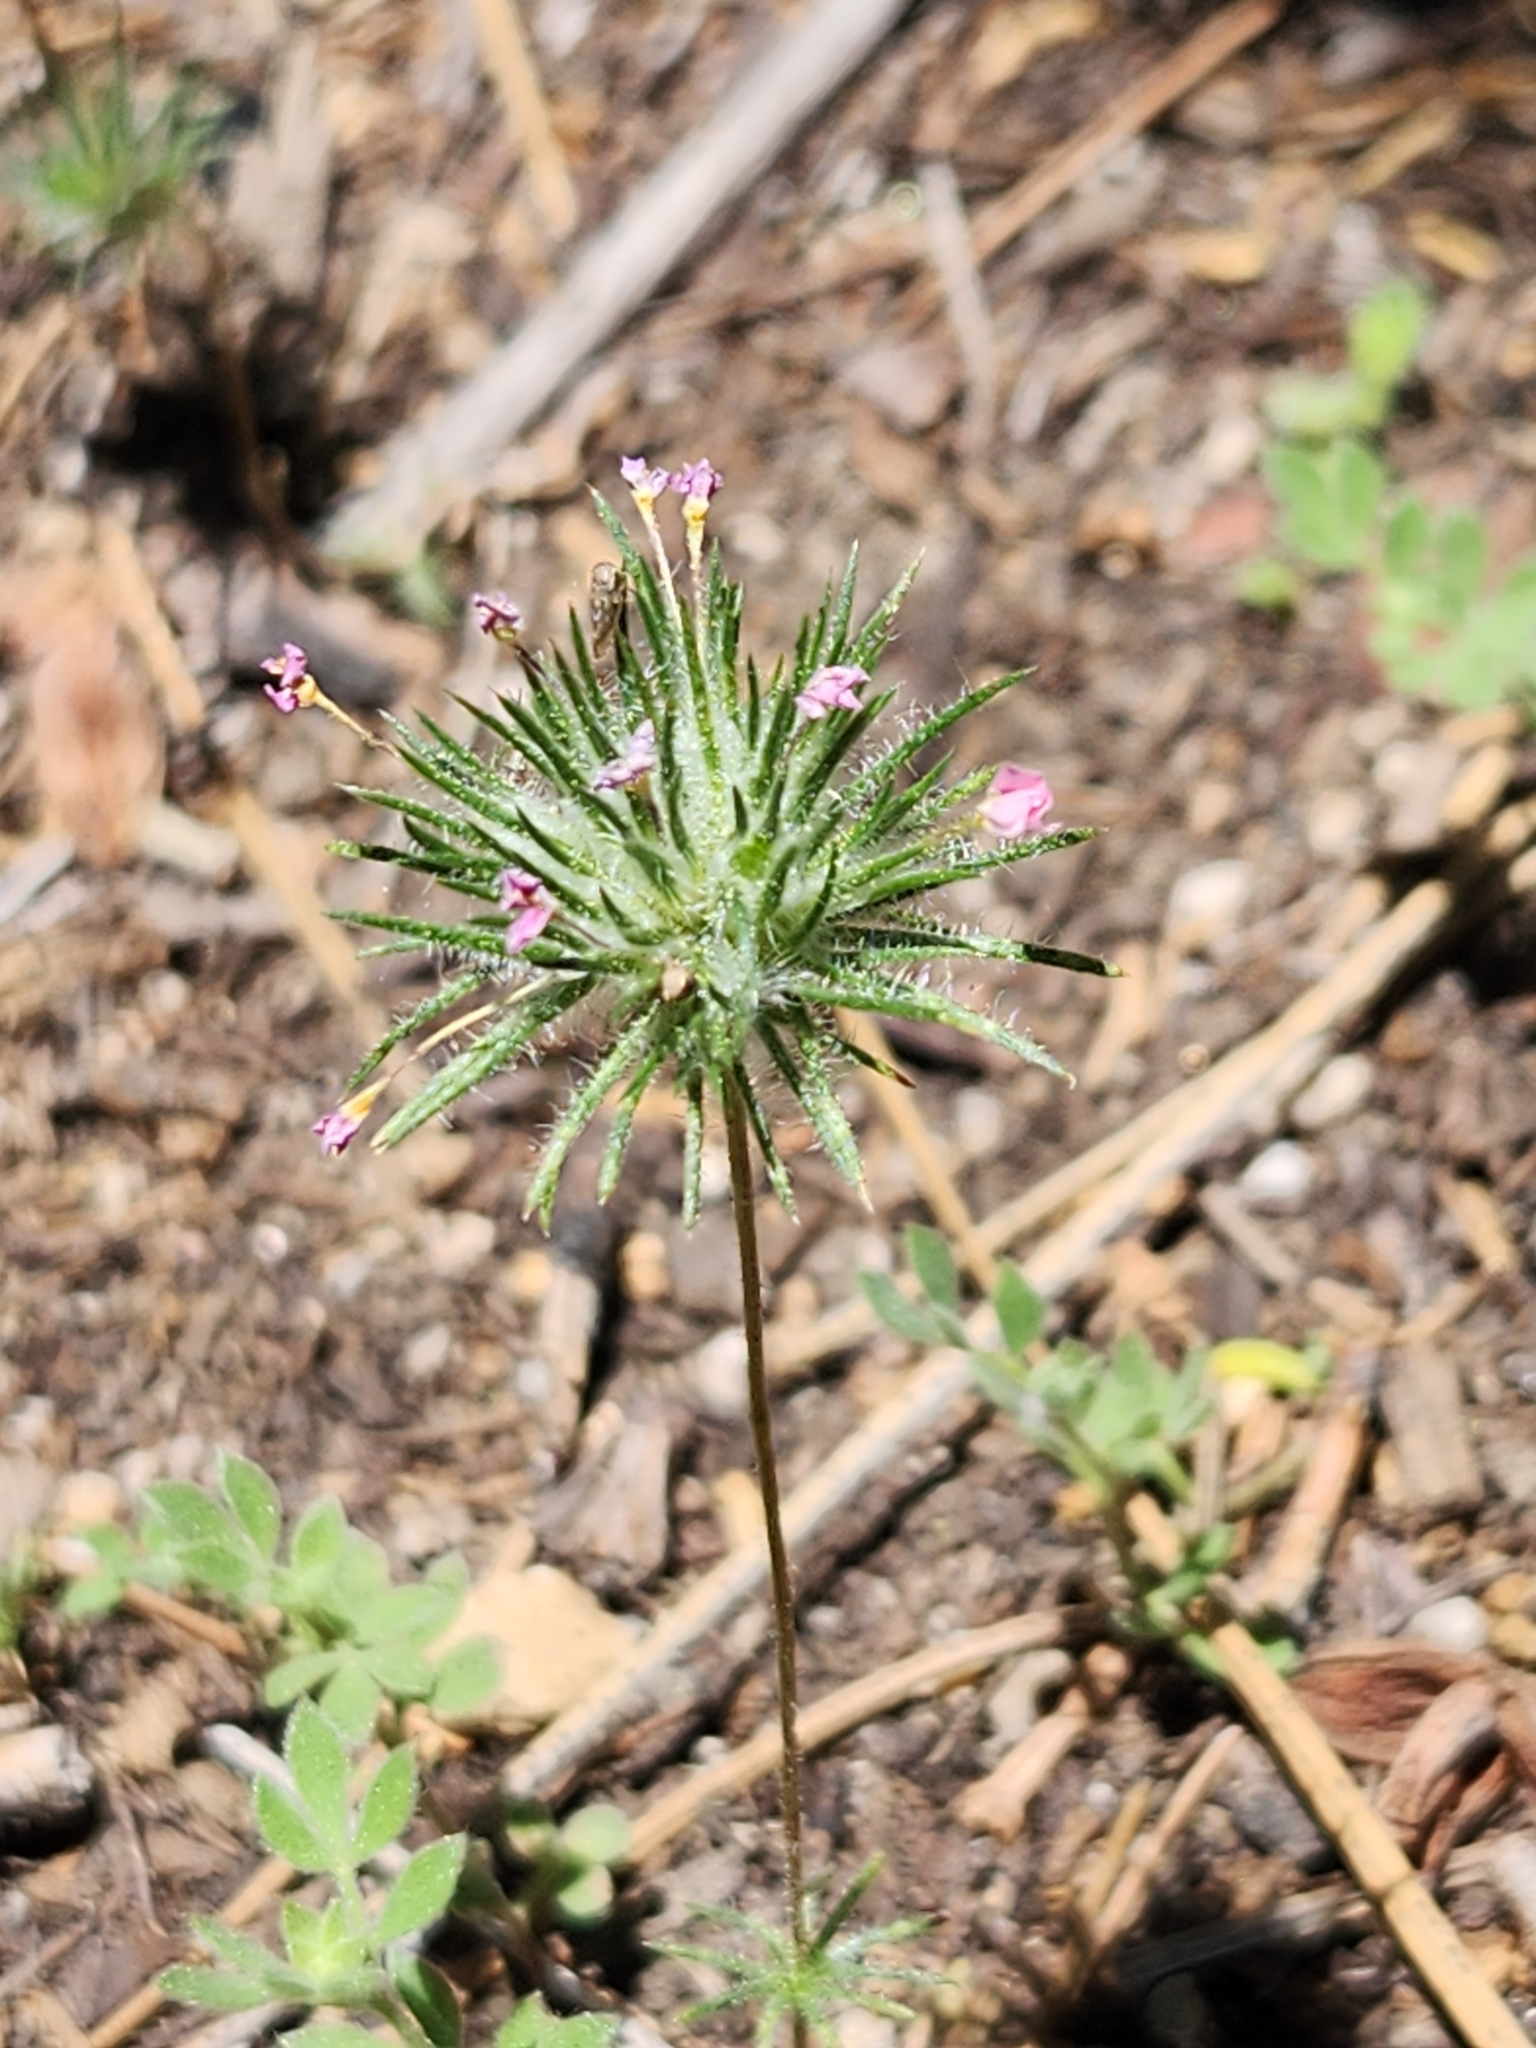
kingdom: Plantae
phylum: Tracheophyta
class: Magnoliopsida
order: Ericales
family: Polemoniaceae
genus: Leptosiphon
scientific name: Leptosiphon ciliatus
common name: Whiskerbrush
